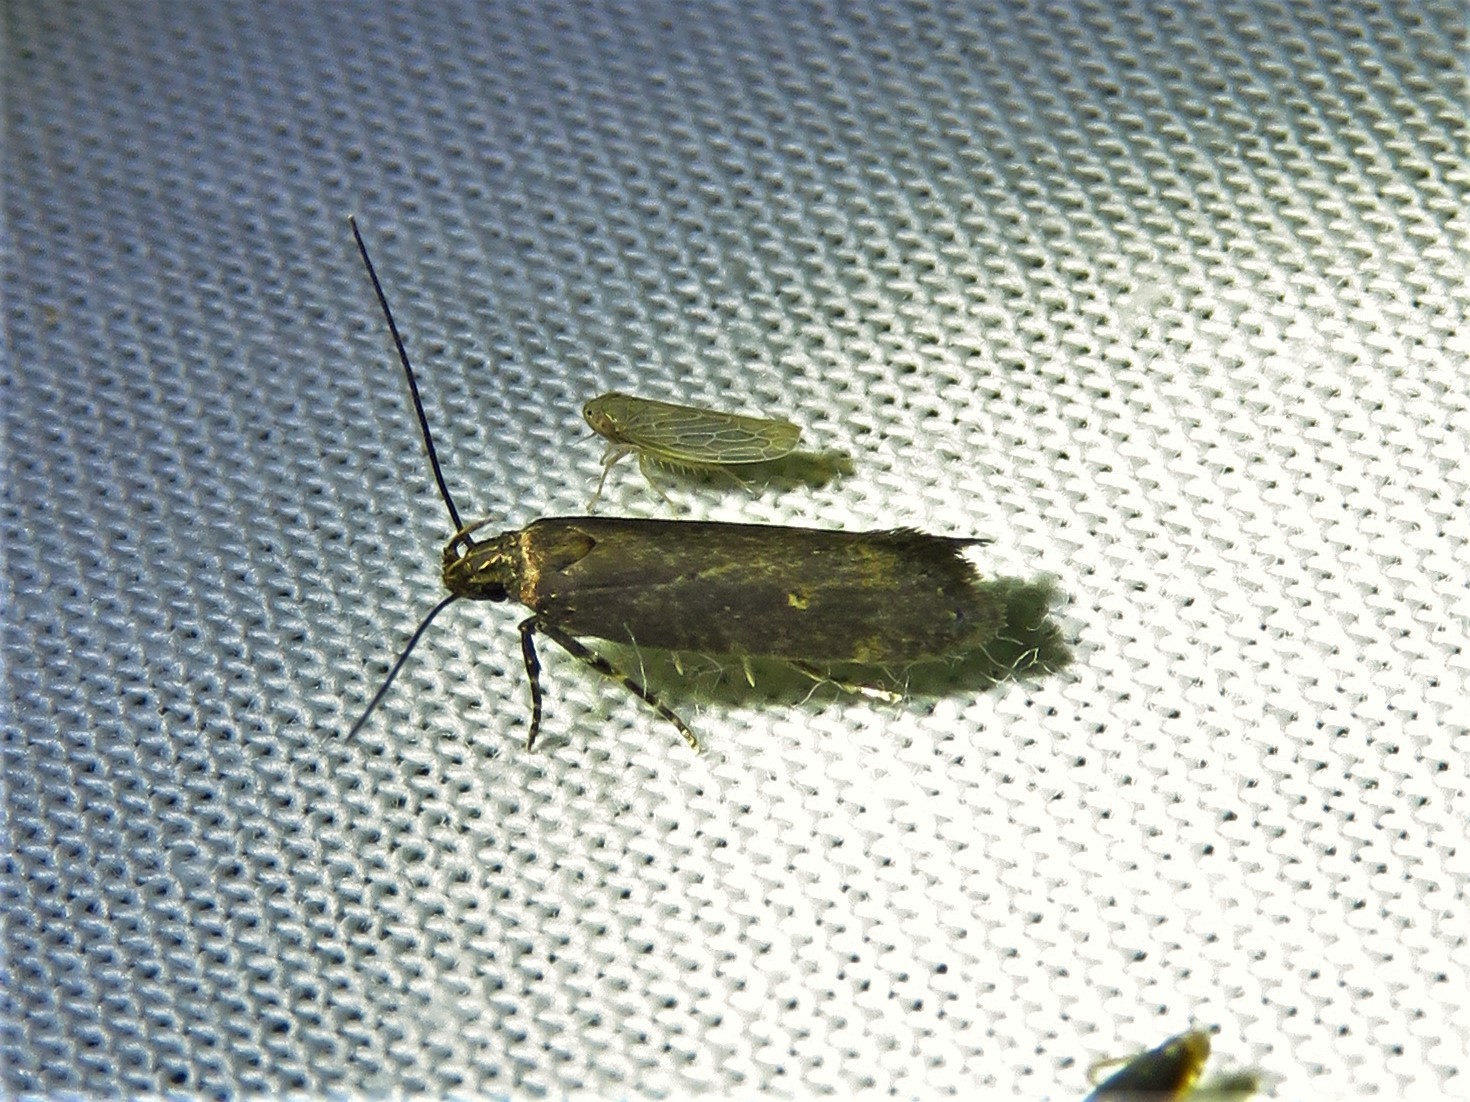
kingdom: Animalia
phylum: Arthropoda
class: Insecta
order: Lepidoptera
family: Gelechiidae
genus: Chionodes
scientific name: Chionodes discoocellella
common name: Eye-ringed chionodes moth
